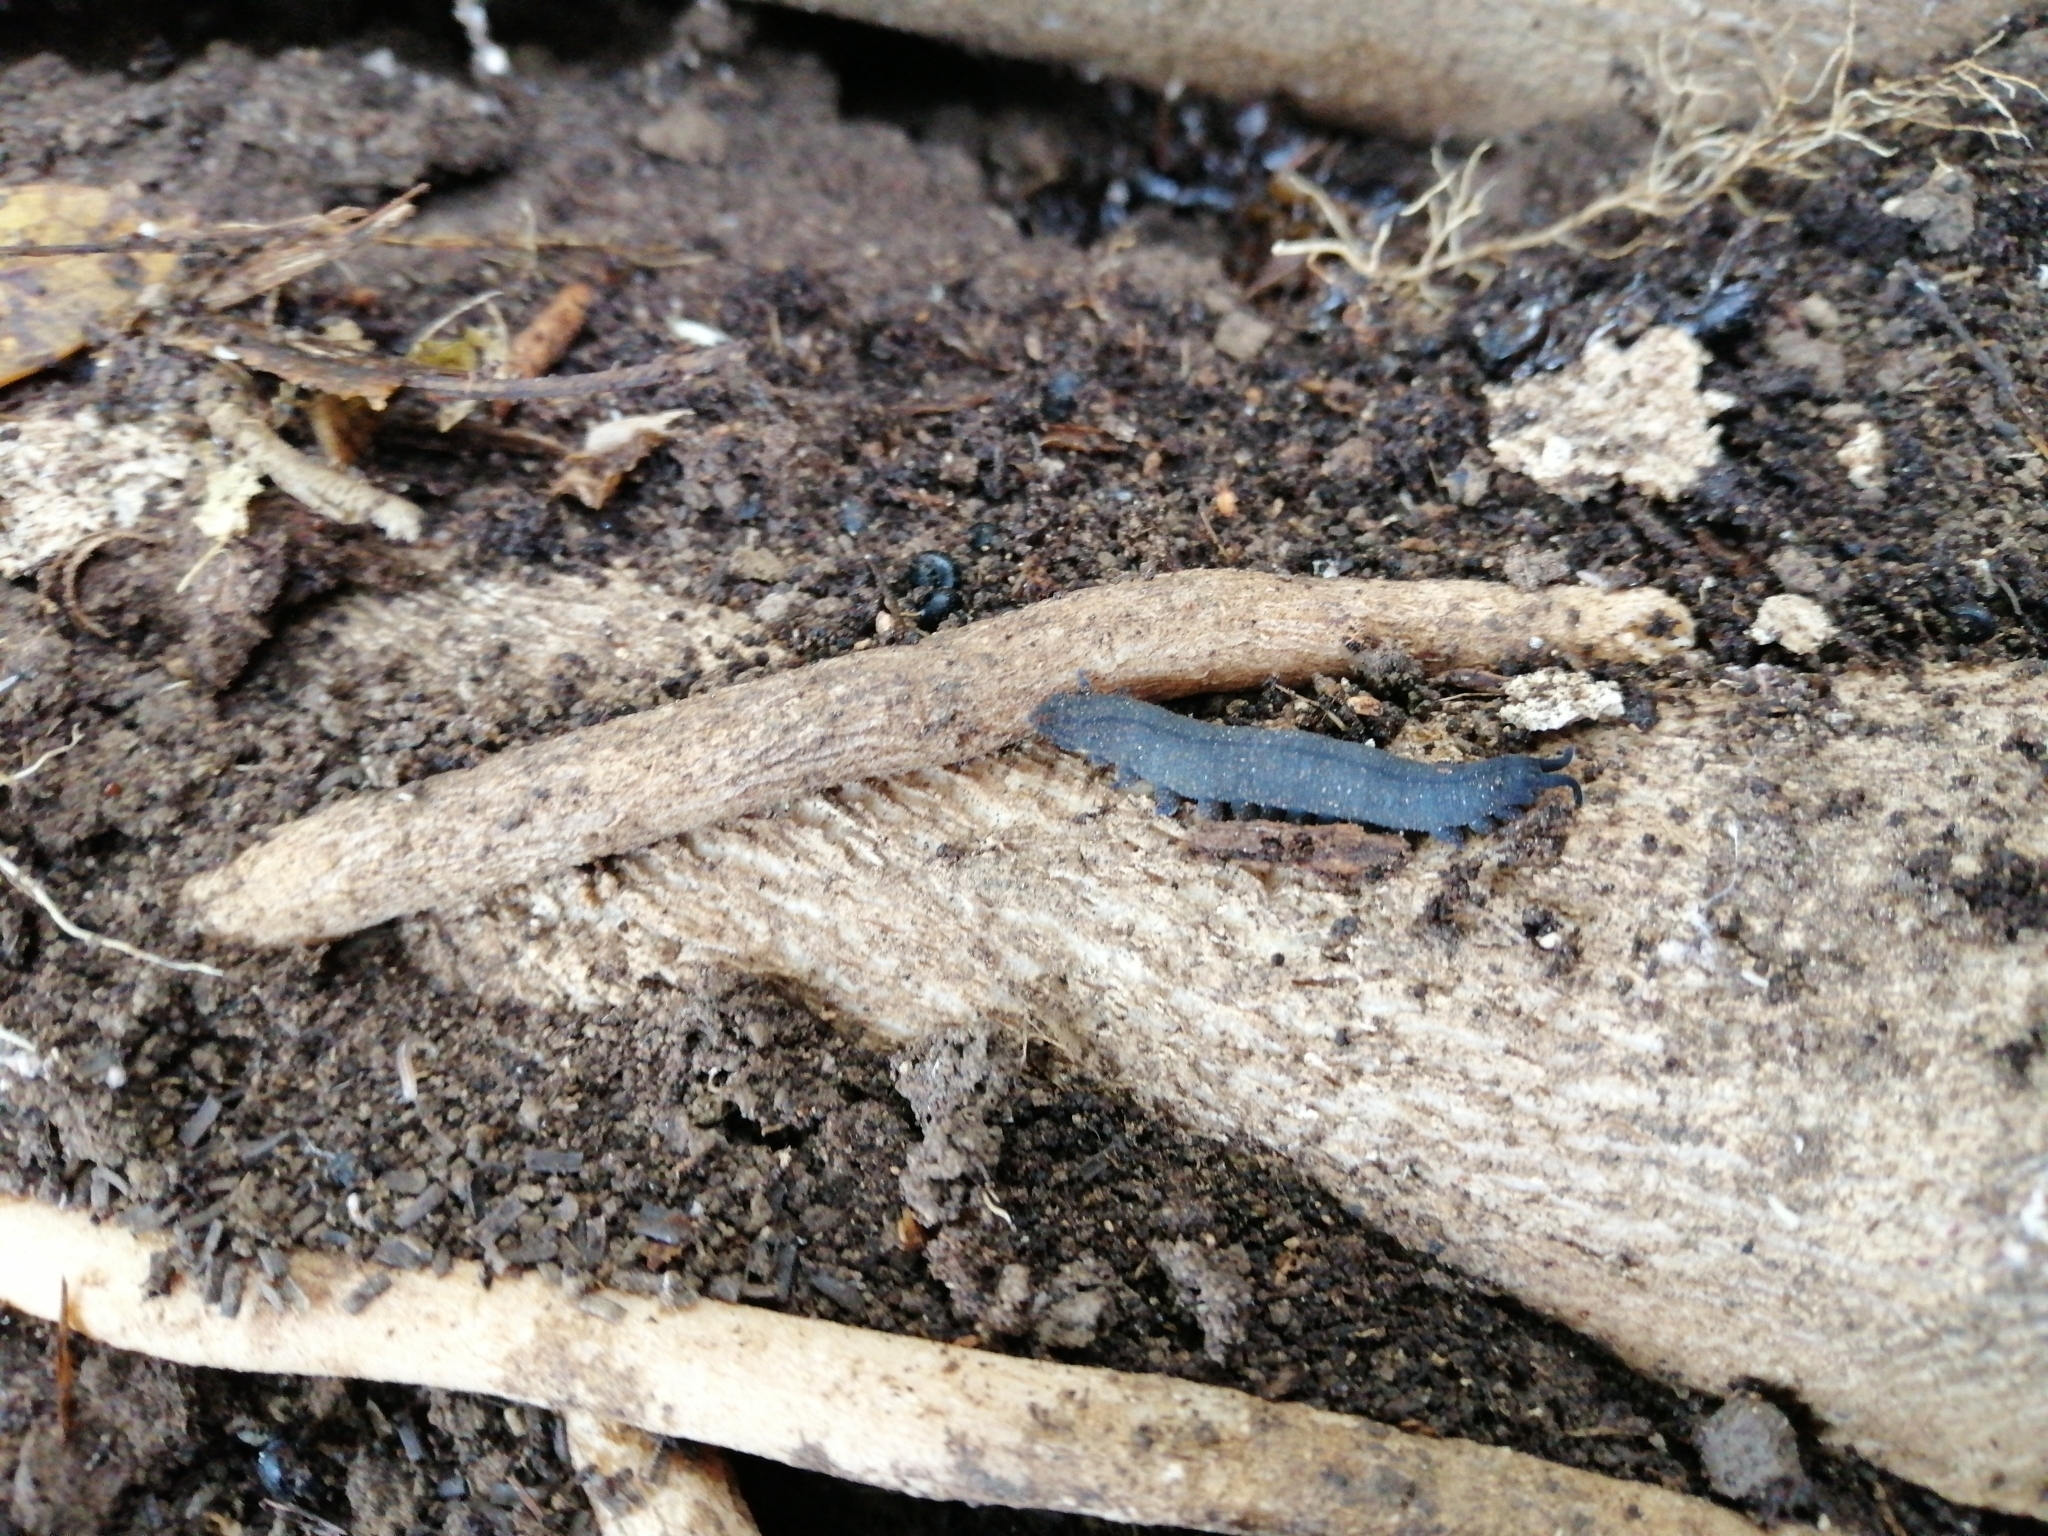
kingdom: Animalia
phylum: Onychophora
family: Peripatopsidae
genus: Peripatoides
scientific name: Peripatoides novaezealandiae
